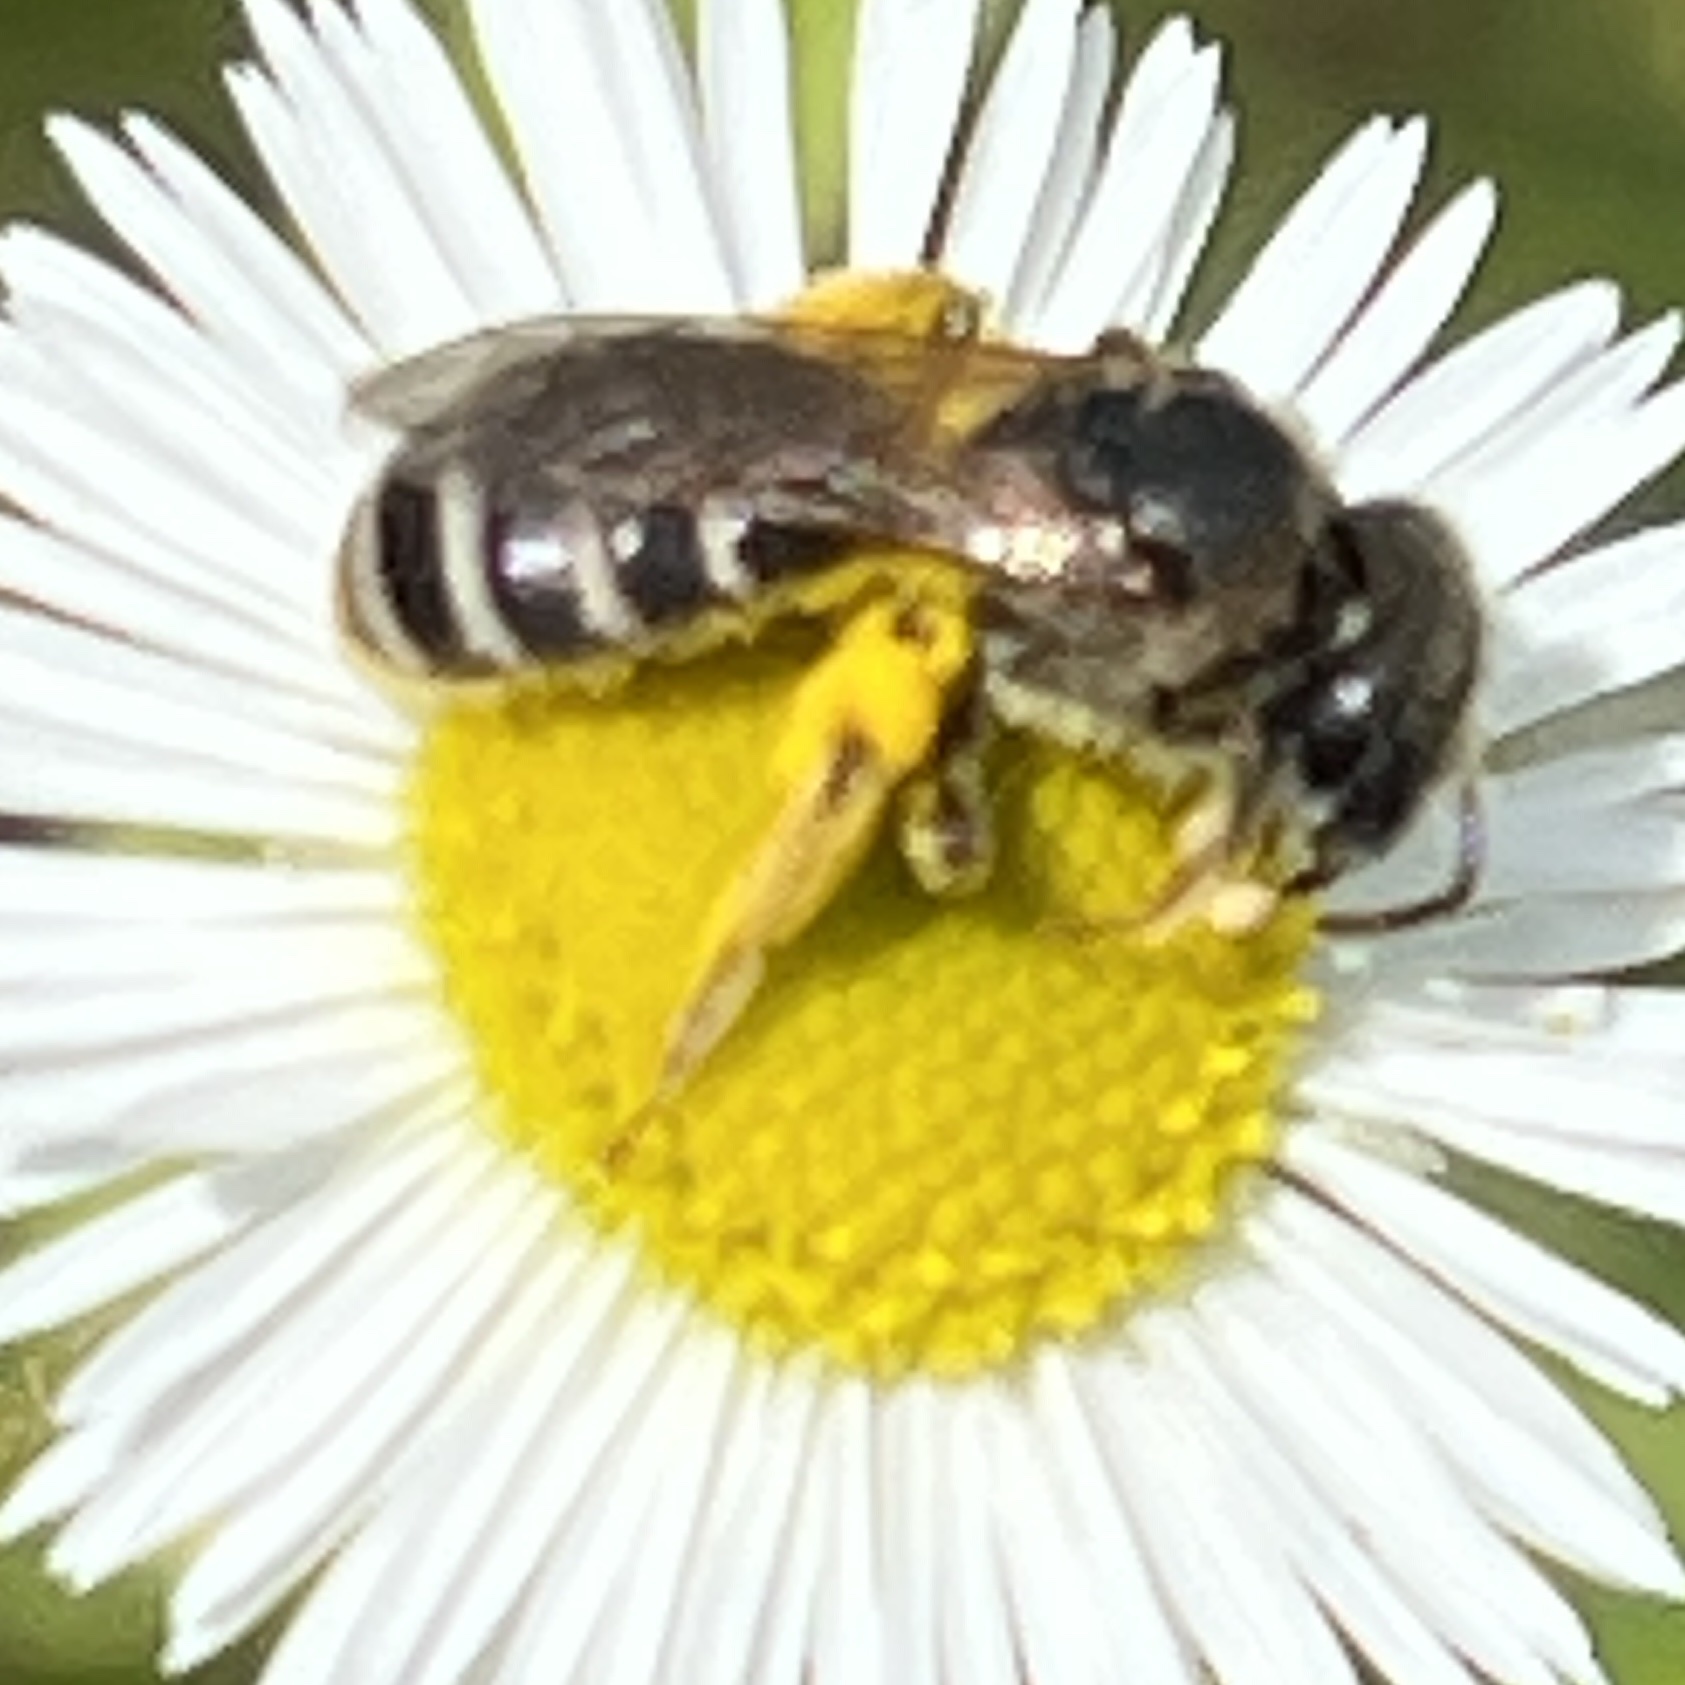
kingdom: Animalia
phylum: Arthropoda
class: Insecta
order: Hymenoptera
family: Halictidae
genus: Halictus
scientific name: Halictus ligatus
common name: Ligated furrow bee
